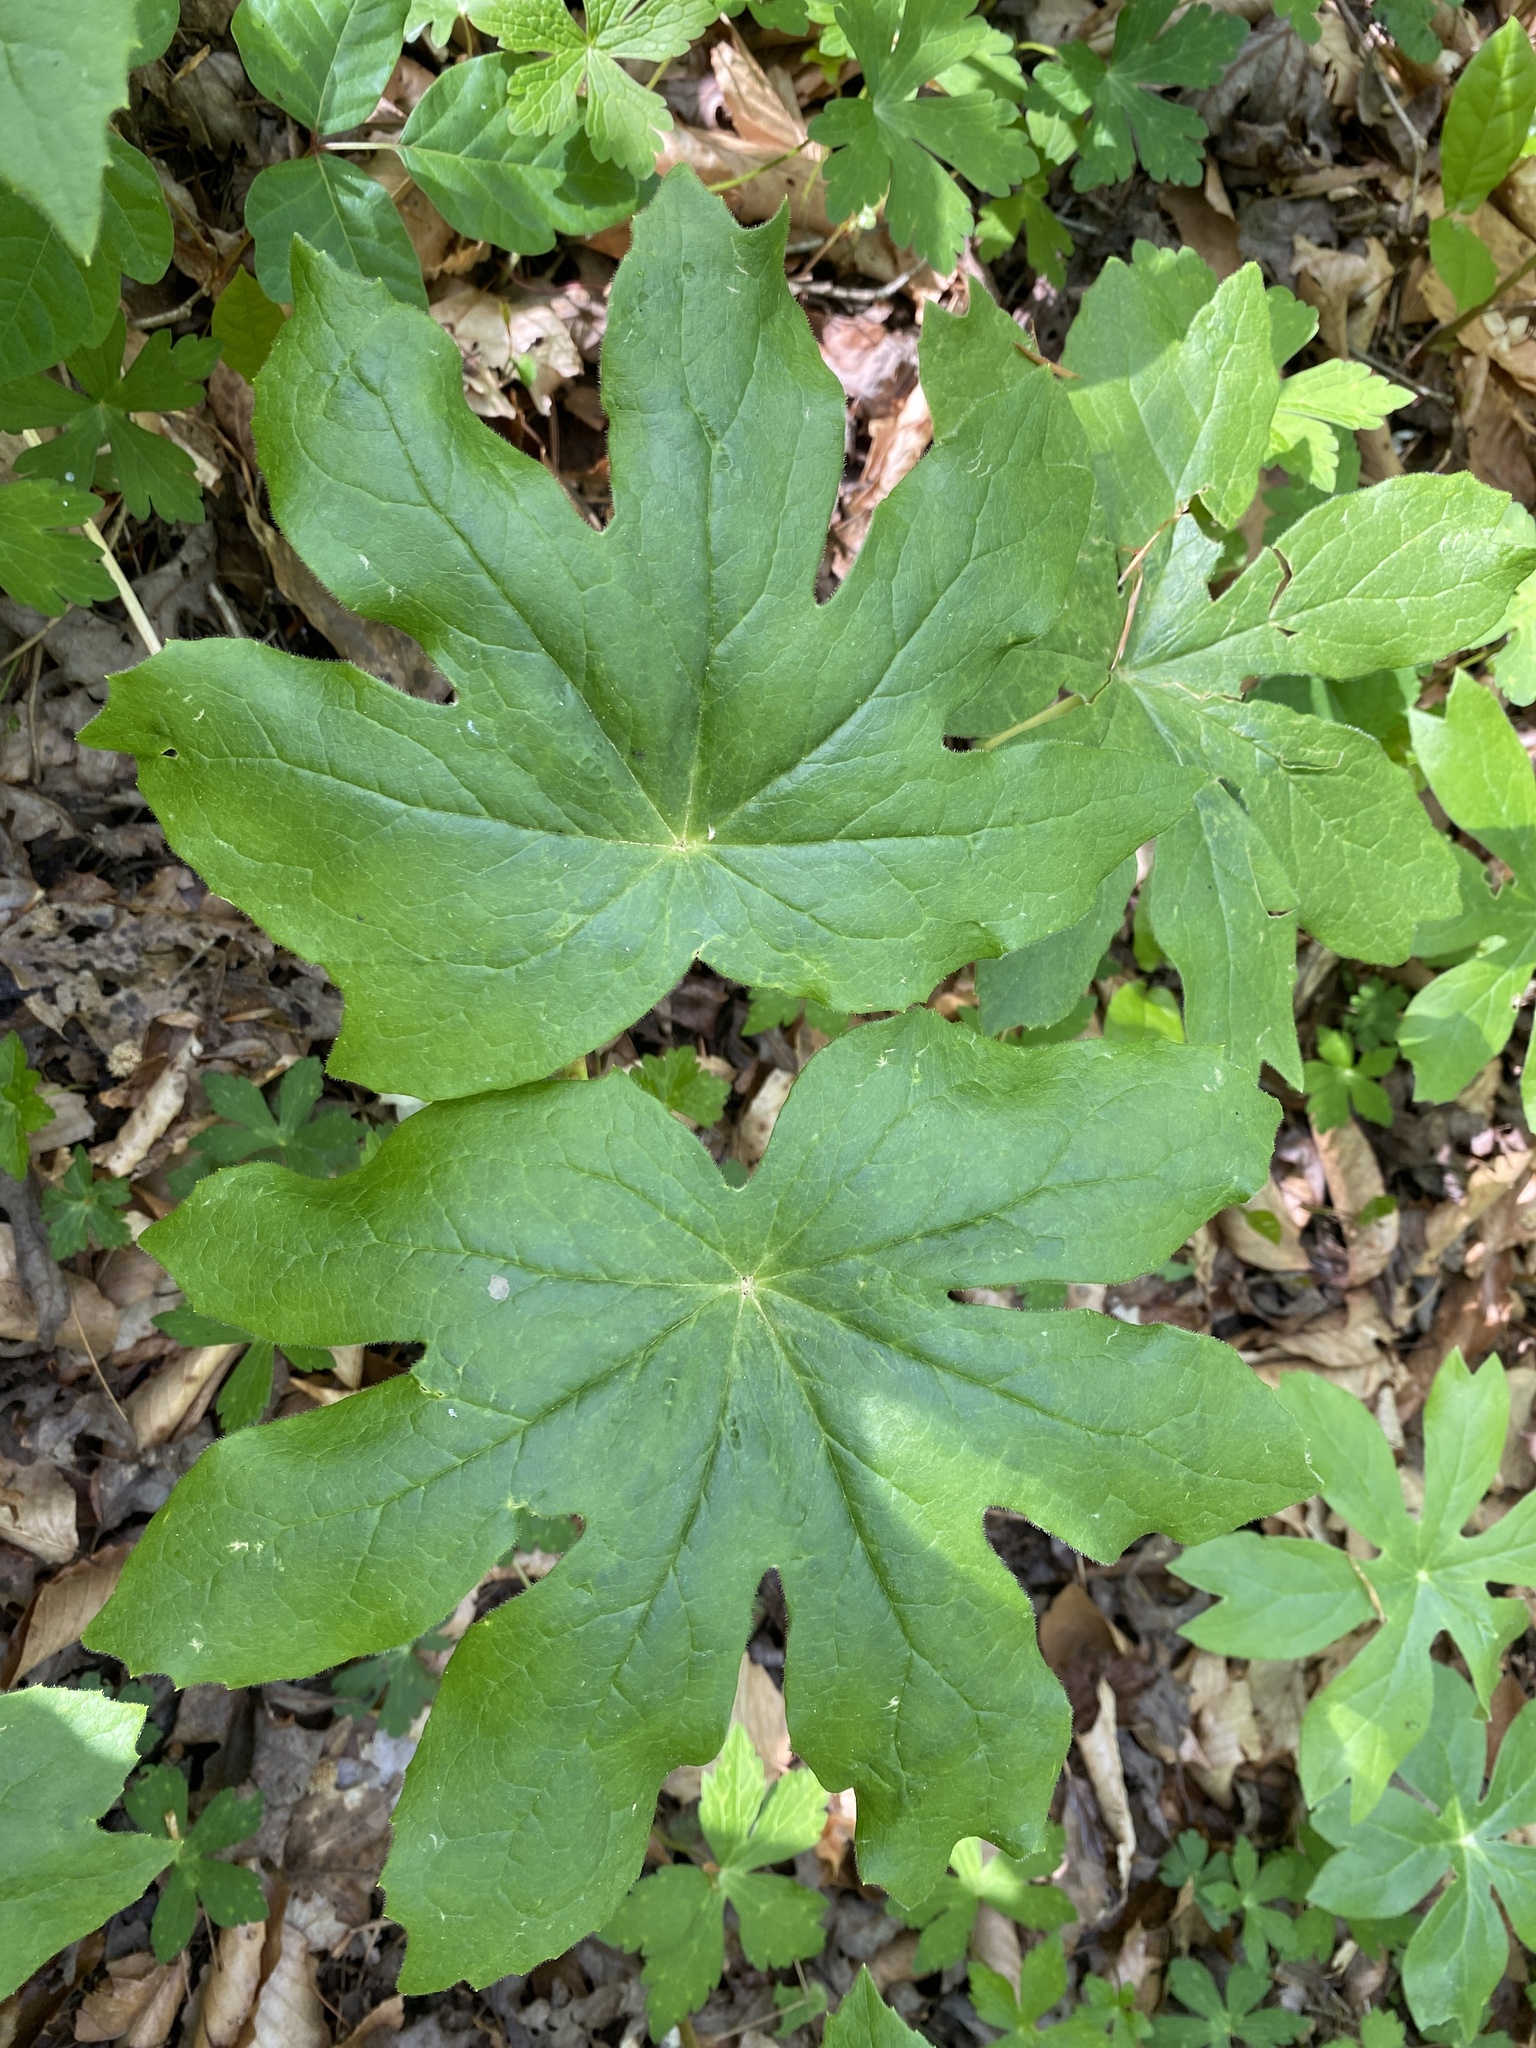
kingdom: Plantae
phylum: Tracheophyta
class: Magnoliopsida
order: Ranunculales
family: Berberidaceae
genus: Podophyllum
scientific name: Podophyllum peltatum
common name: Wild mandrake
